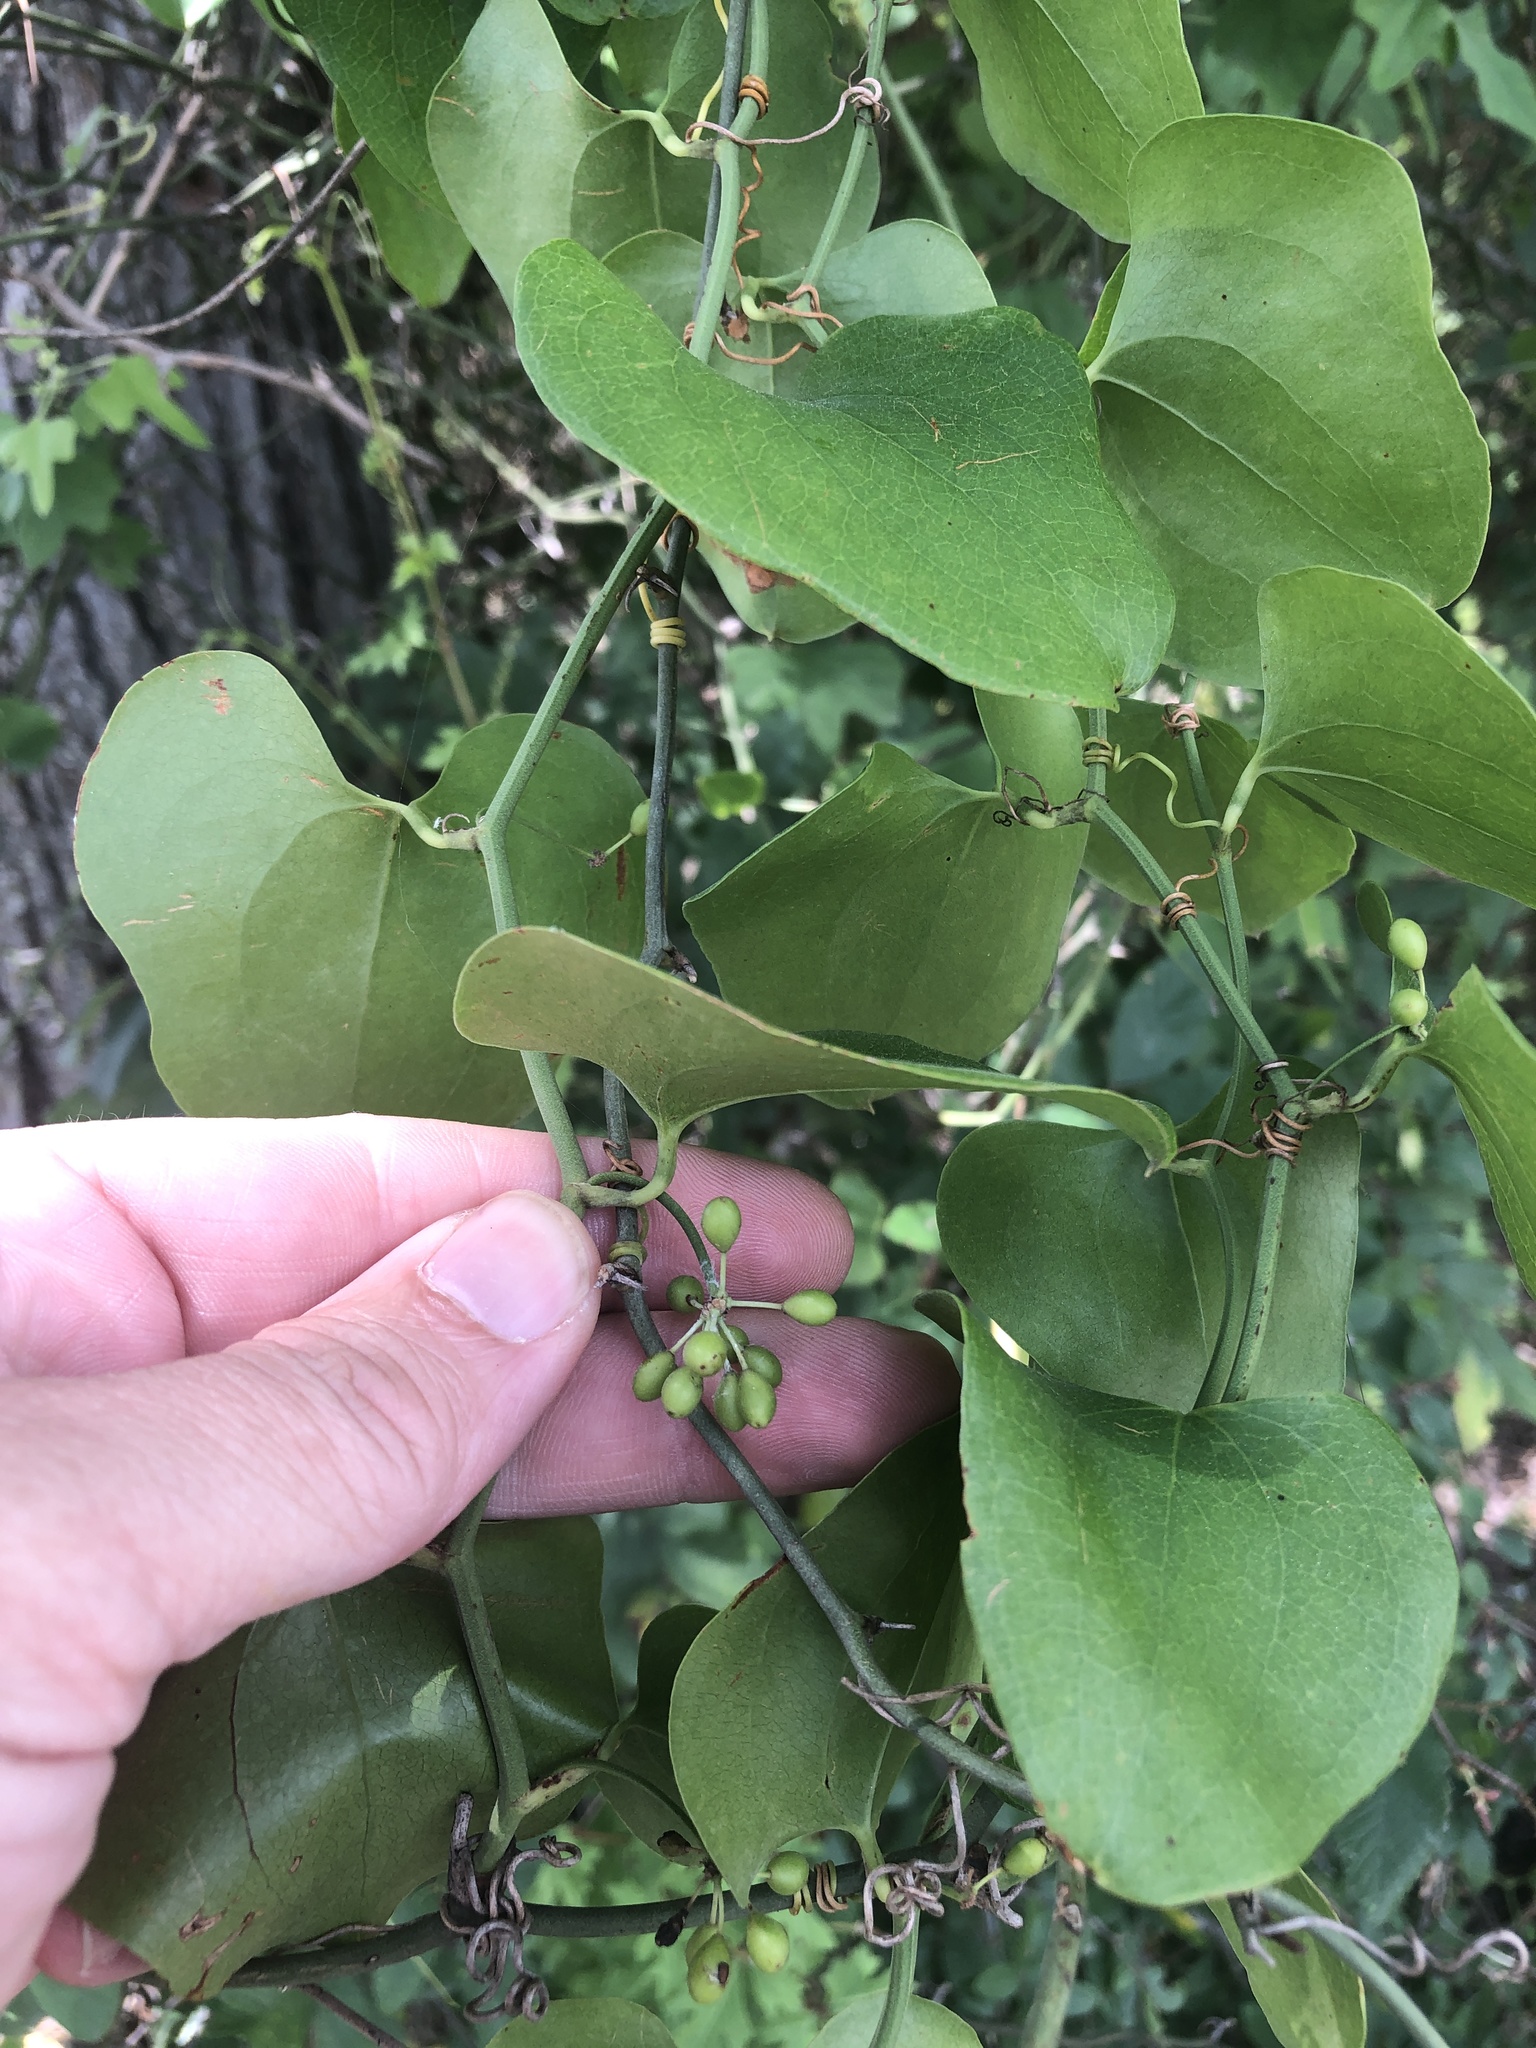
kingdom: Plantae
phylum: Tracheophyta
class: Liliopsida
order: Liliales
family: Smilacaceae
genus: Smilax
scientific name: Smilax bona-nox
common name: Catbrier
